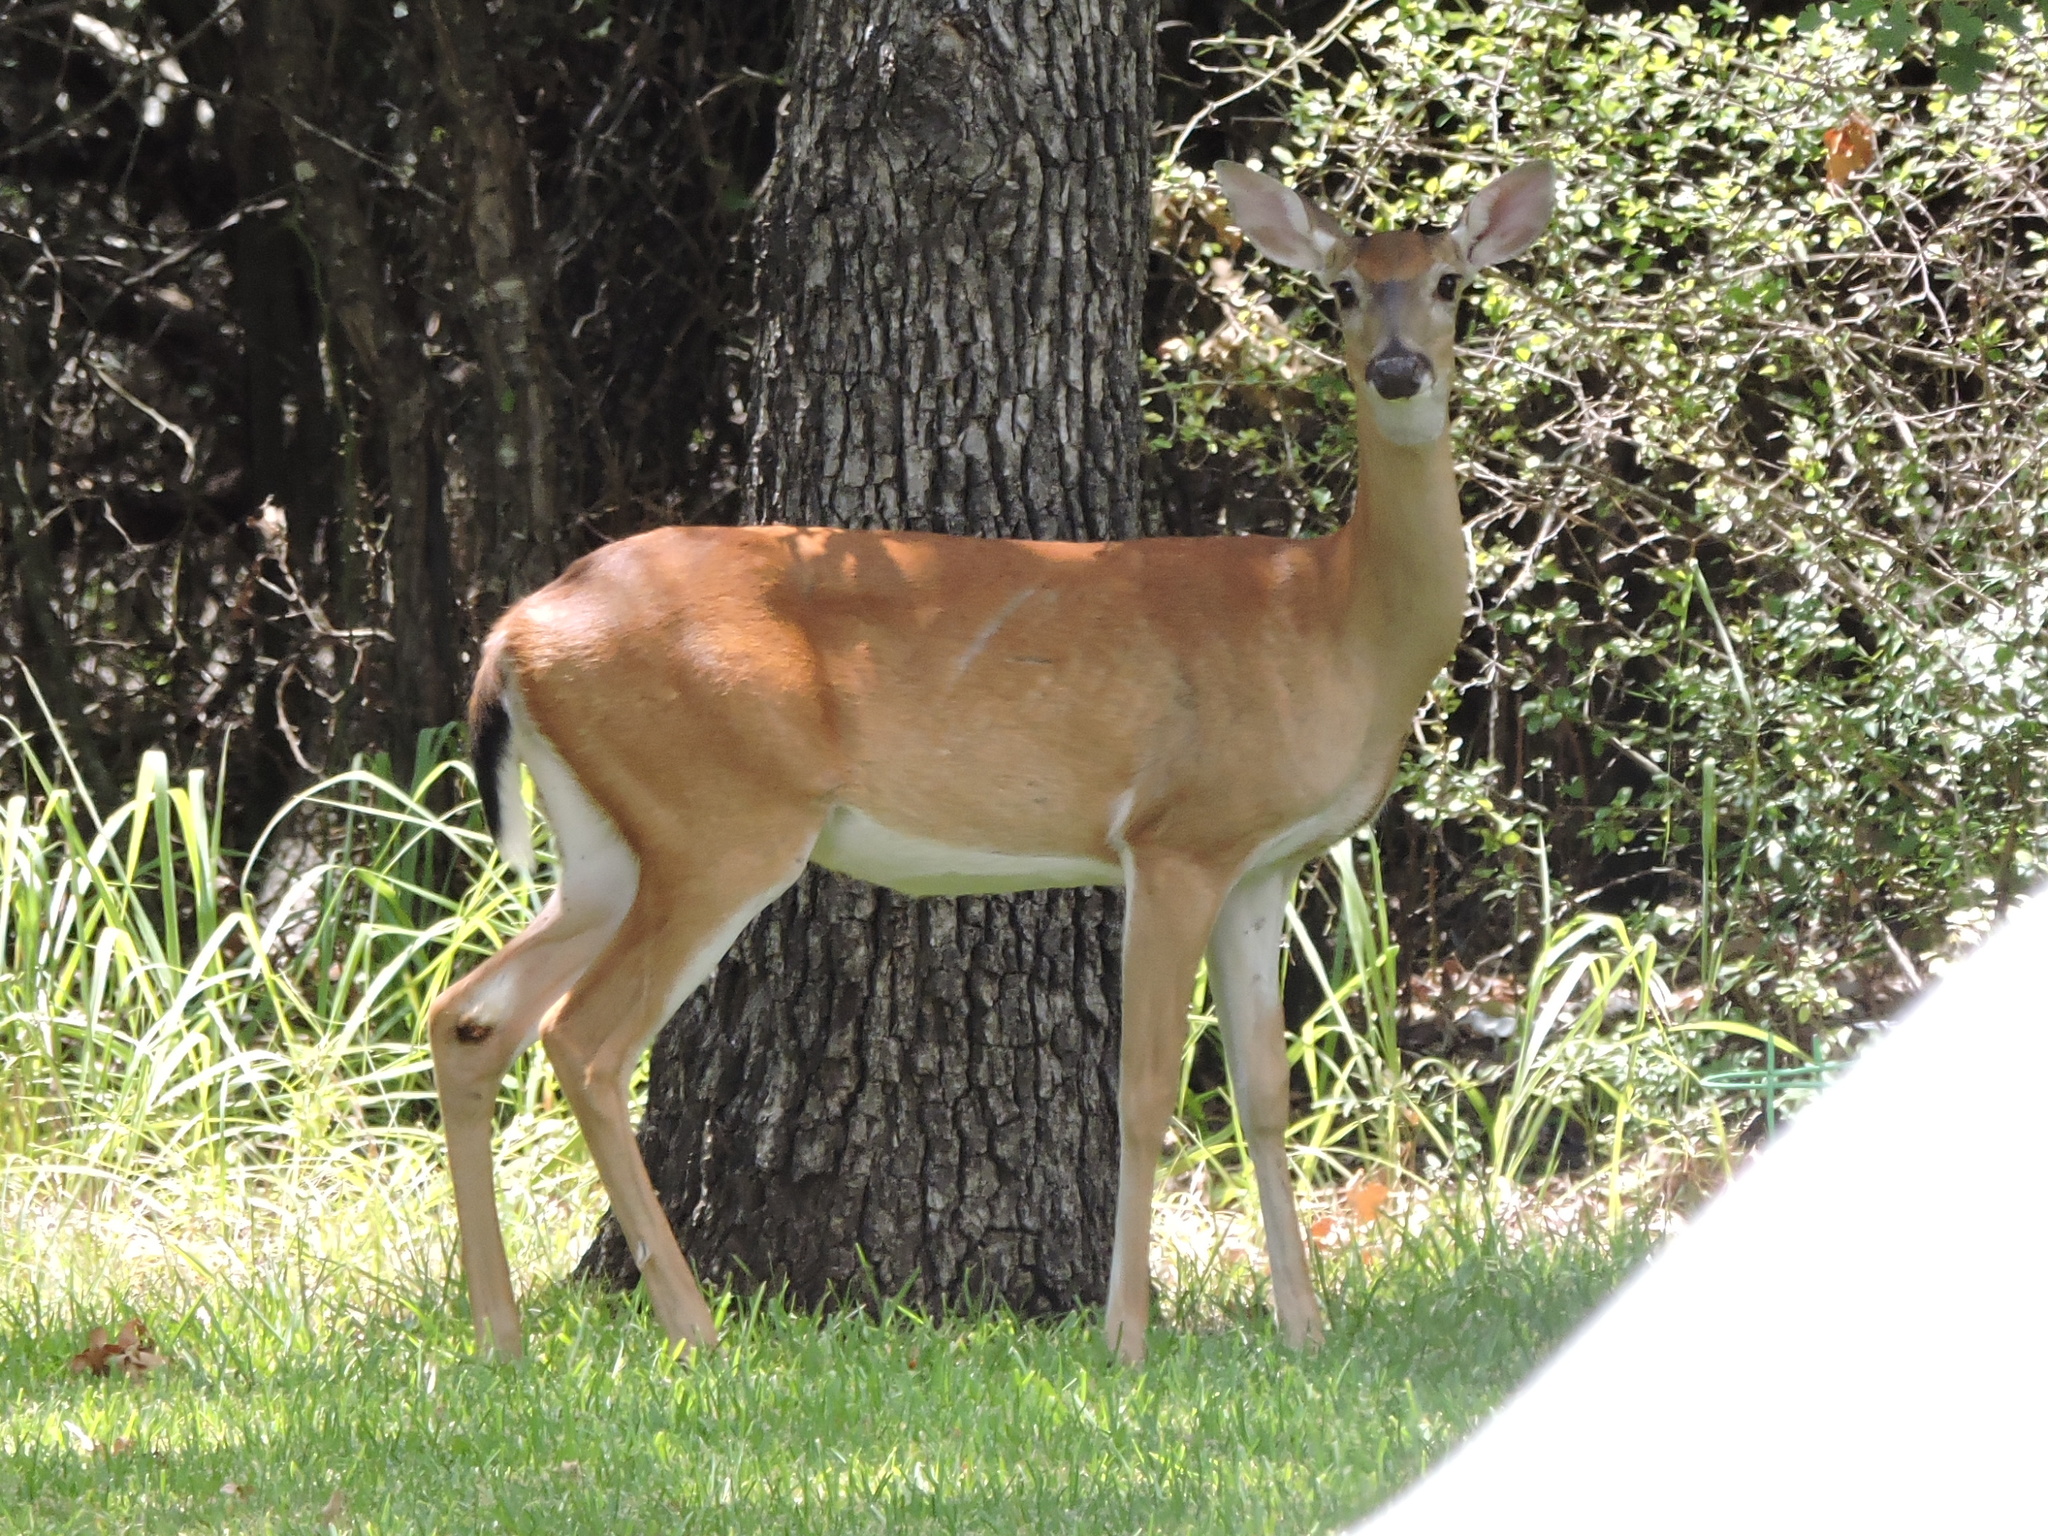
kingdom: Animalia
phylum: Chordata
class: Mammalia
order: Artiodactyla
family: Cervidae
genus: Odocoileus
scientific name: Odocoileus virginianus
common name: White-tailed deer
